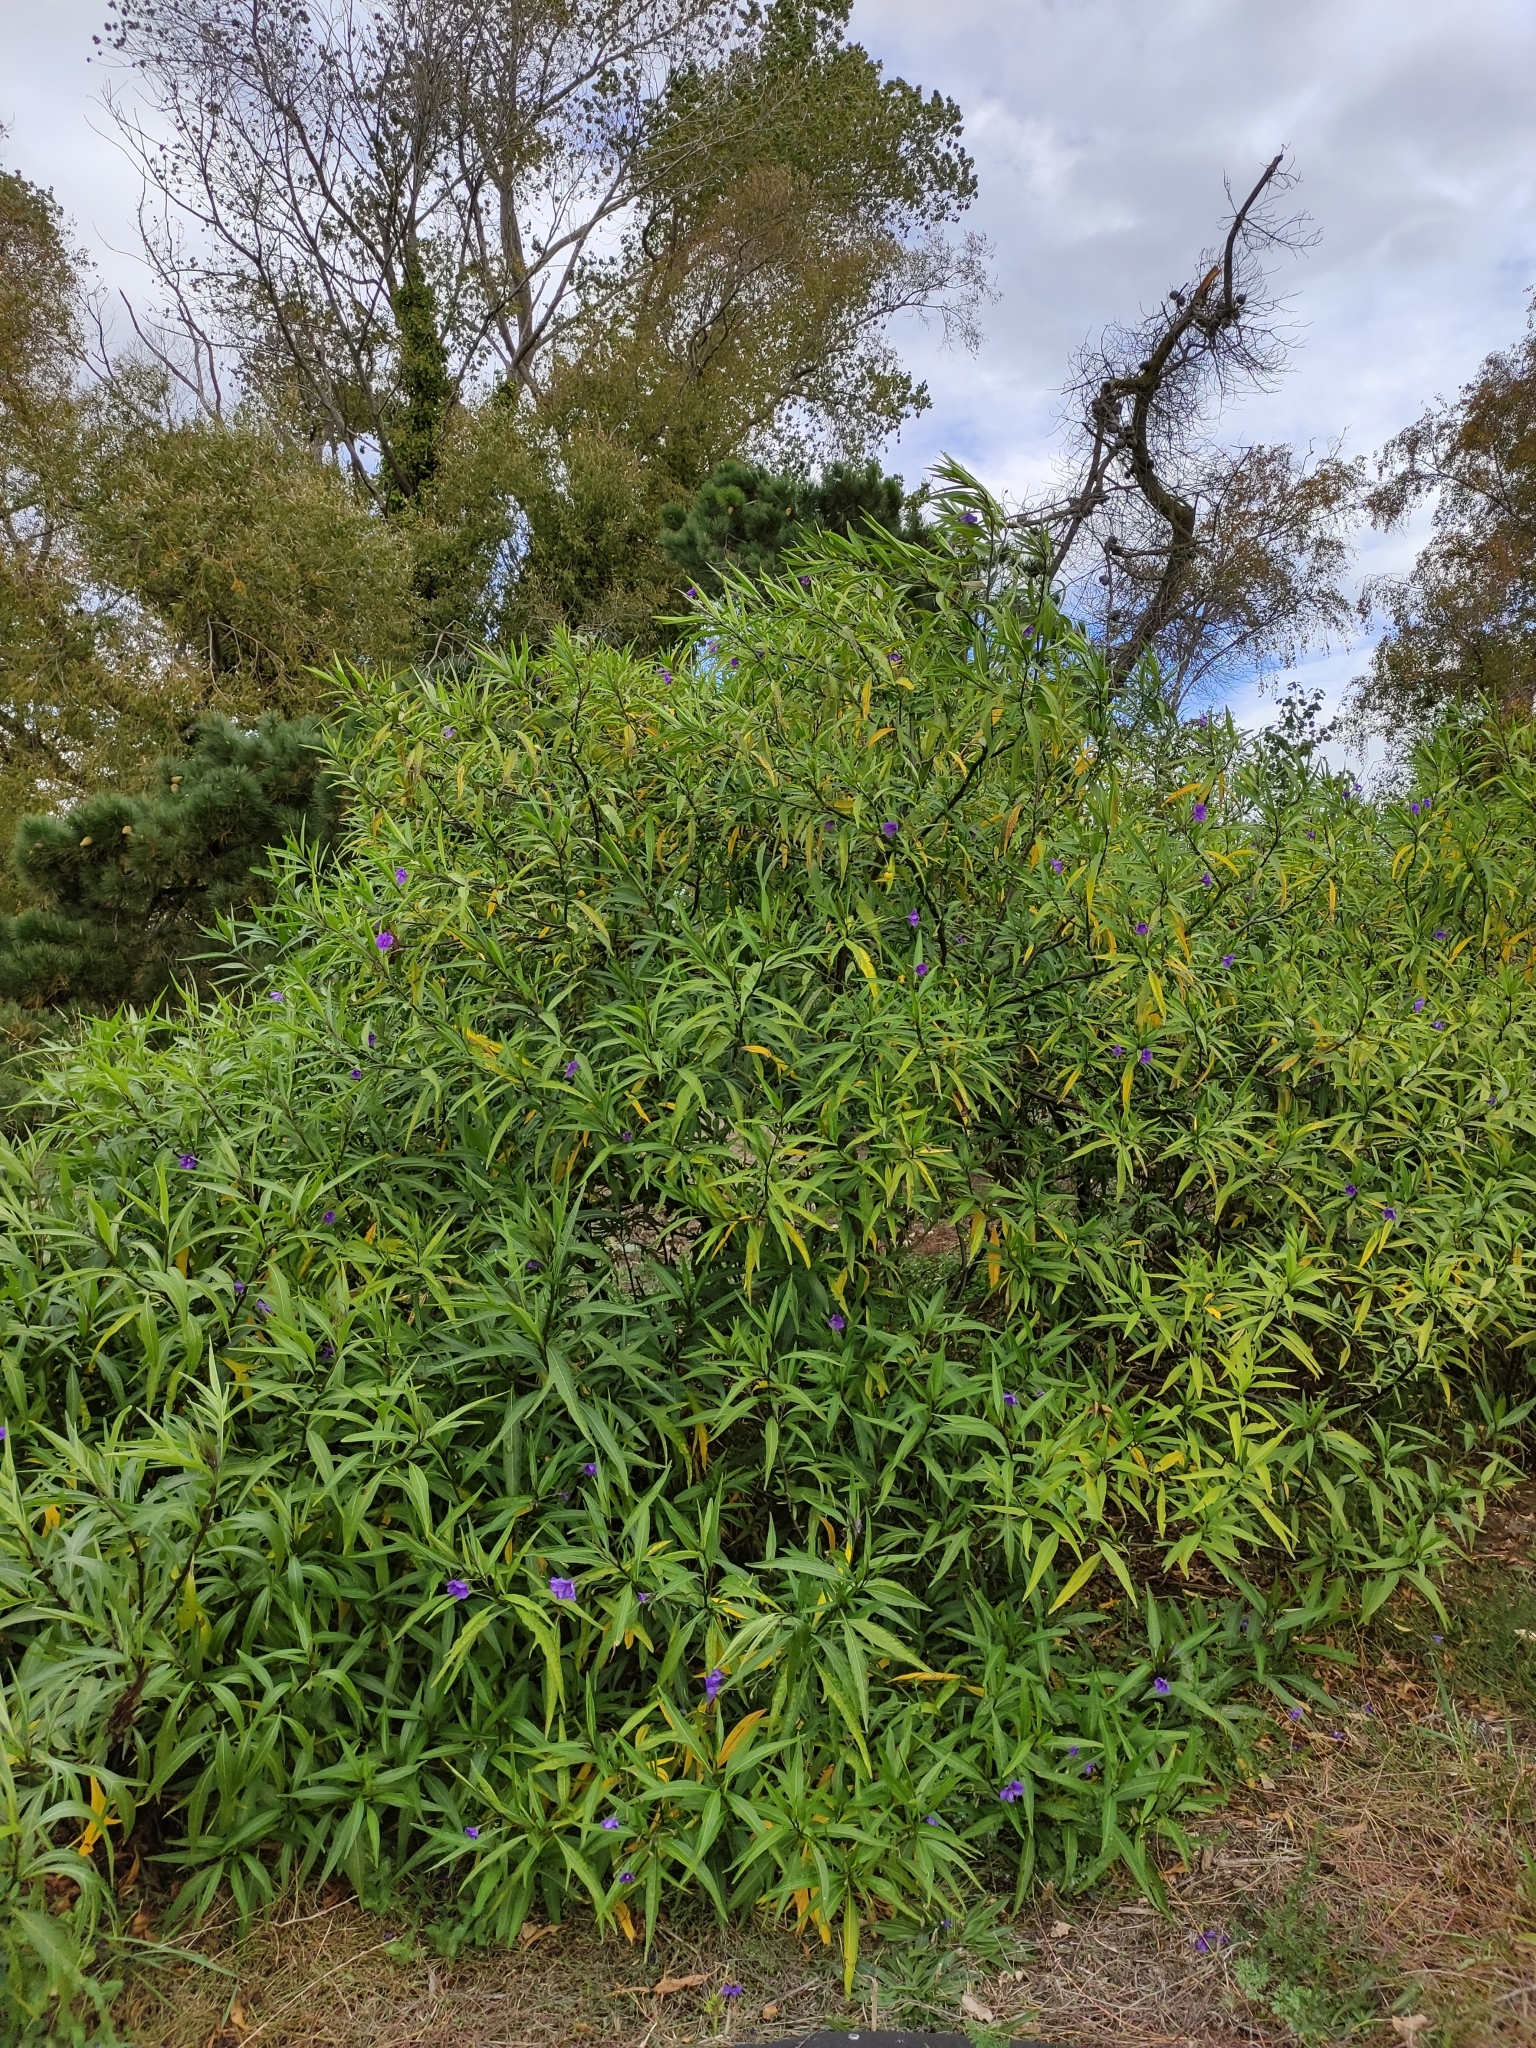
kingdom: Plantae
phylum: Tracheophyta
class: Magnoliopsida
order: Solanales
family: Solanaceae
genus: Solanum
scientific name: Solanum laciniatum
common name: Kangaroo-apple
